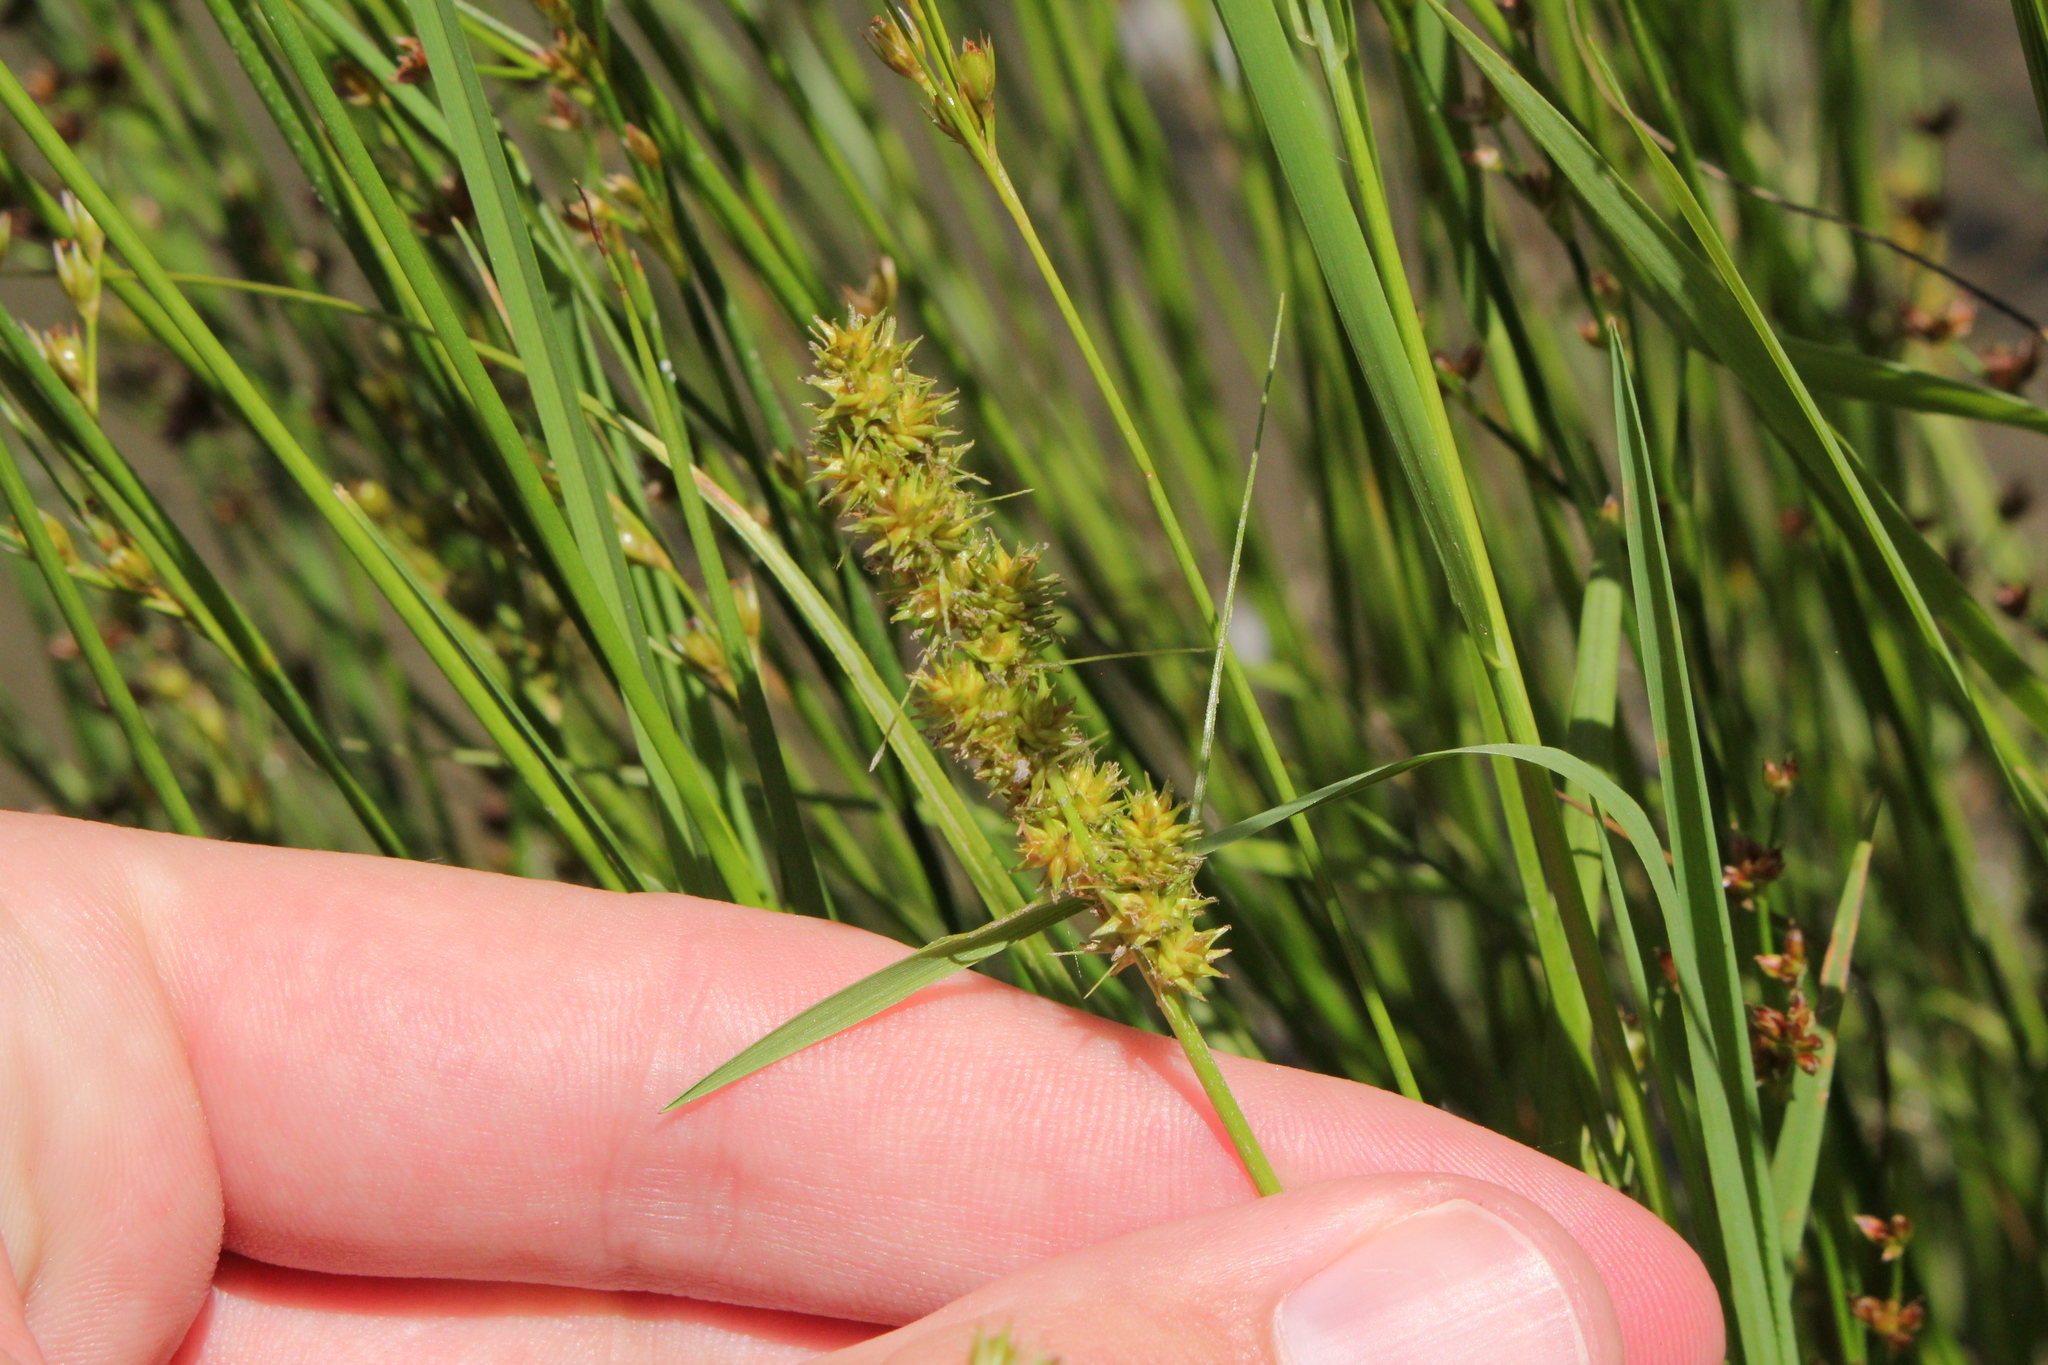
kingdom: Plantae
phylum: Tracheophyta
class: Liliopsida
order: Poales
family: Cyperaceae
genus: Carex
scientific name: Carex vulpinoidea
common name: American fox-sedge
